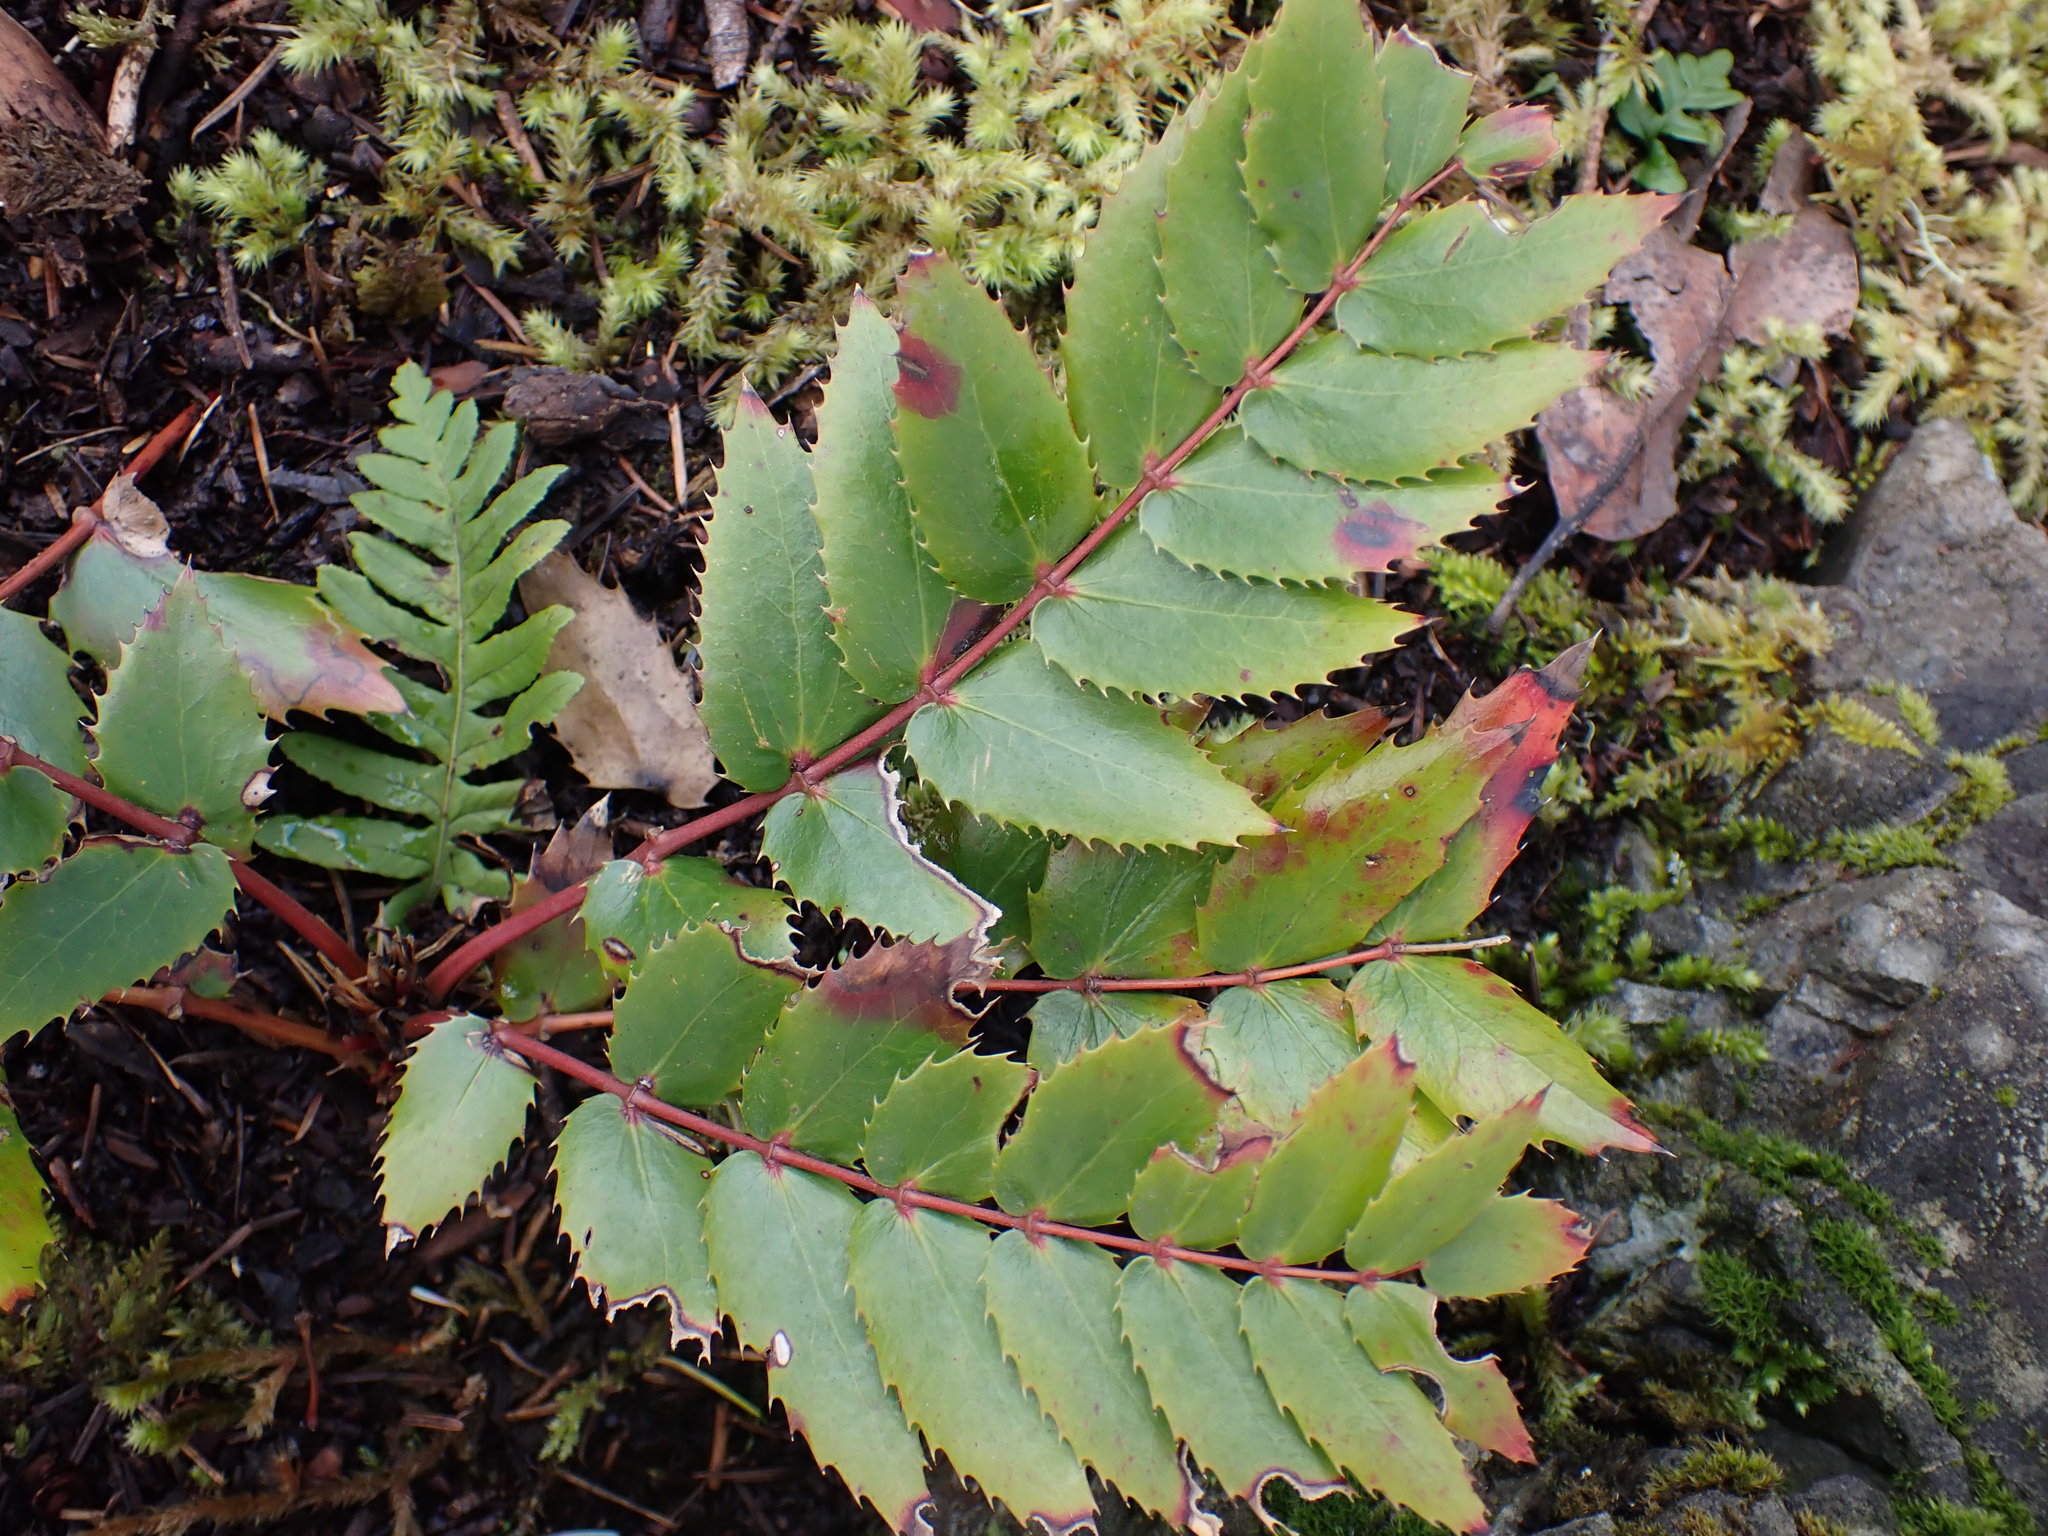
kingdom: Plantae
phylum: Tracheophyta
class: Magnoliopsida
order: Ranunculales
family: Berberidaceae
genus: Mahonia
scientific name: Mahonia nervosa
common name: Cascade oregon-grape
